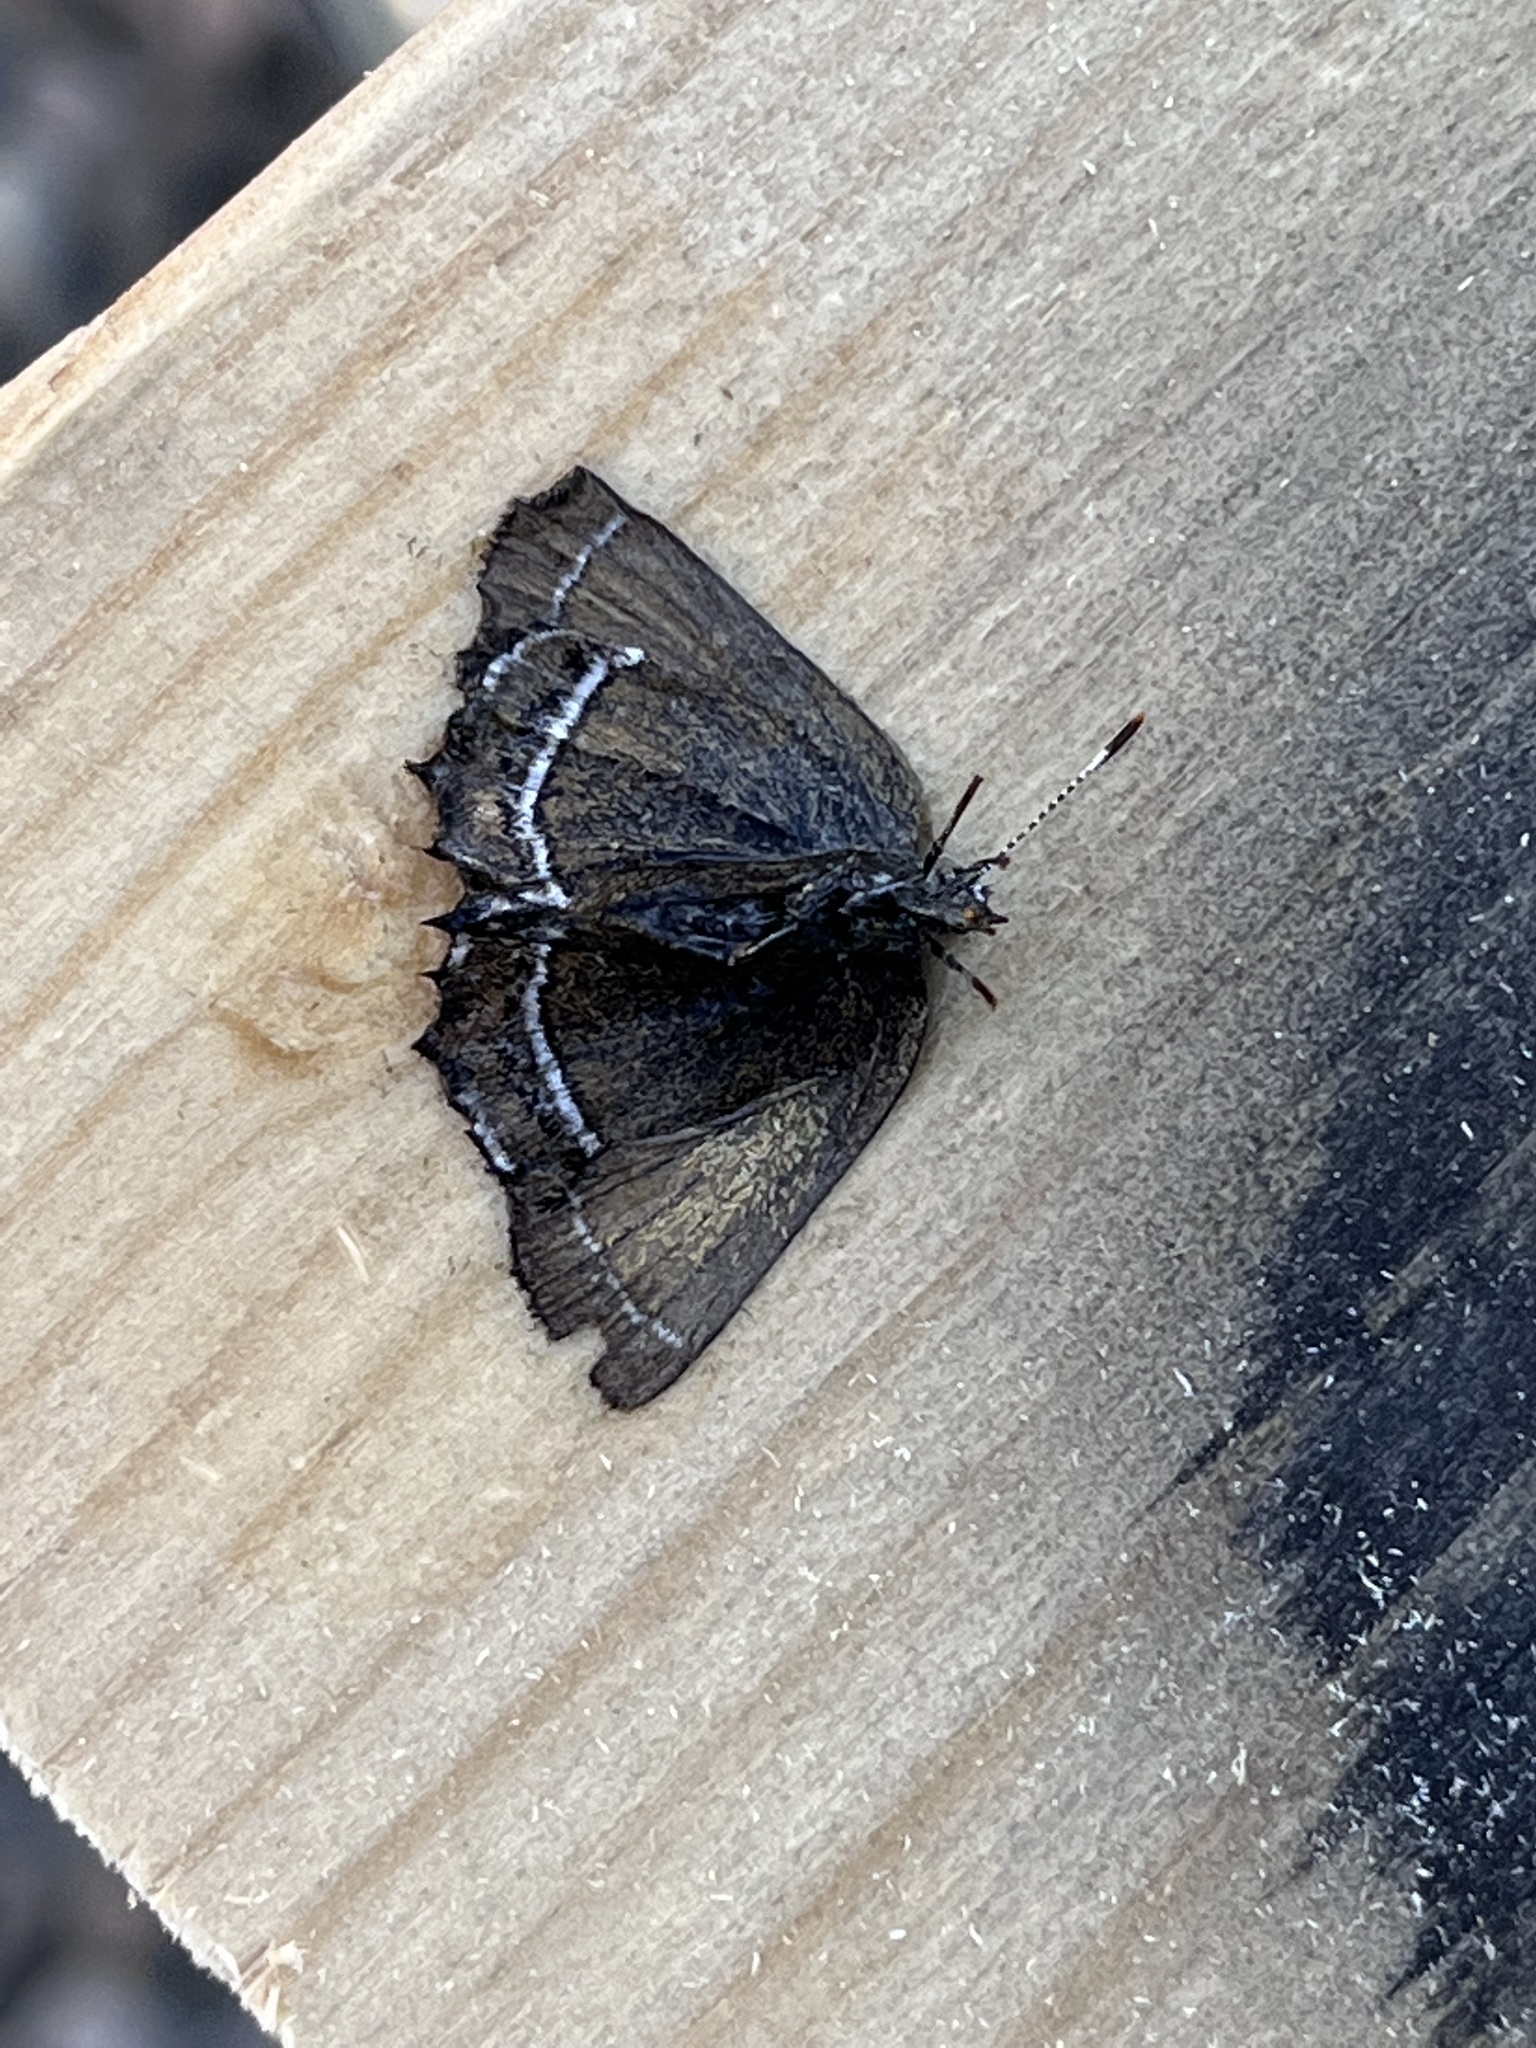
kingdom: Animalia
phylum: Arthropoda
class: Insecta
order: Lepidoptera
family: Lycaenidae
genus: Sandia
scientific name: Sandia mcfarlandi
